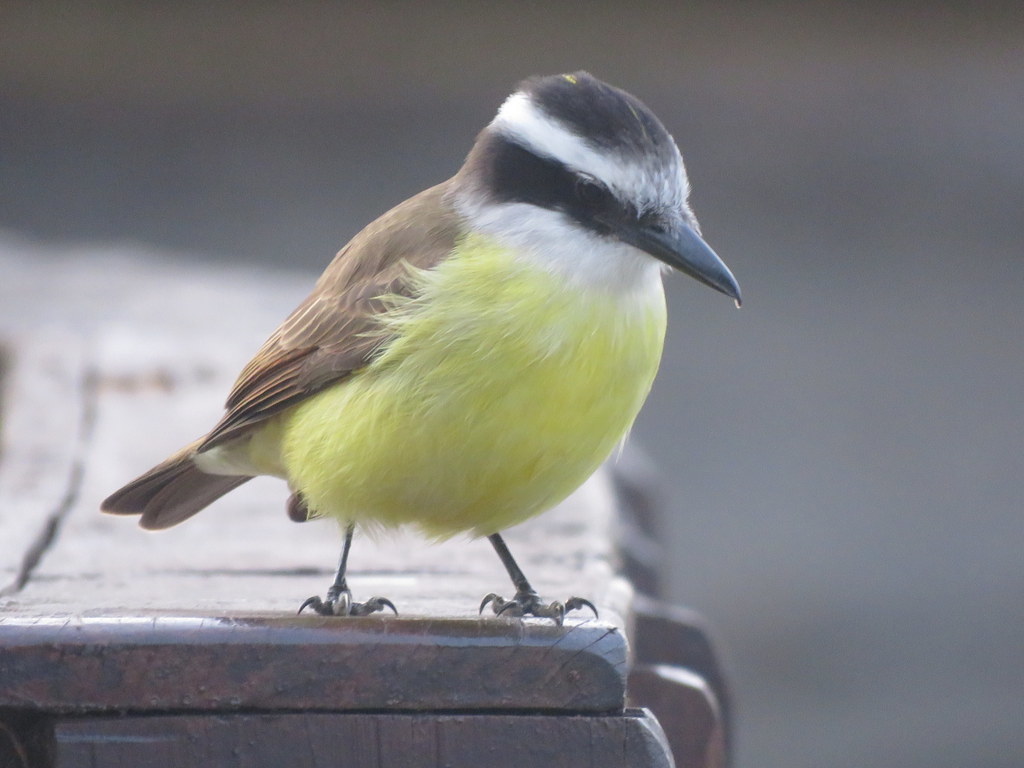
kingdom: Animalia
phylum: Chordata
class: Aves
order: Passeriformes
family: Tyrannidae
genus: Pitangus
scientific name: Pitangus sulphuratus
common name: Great kiskadee
